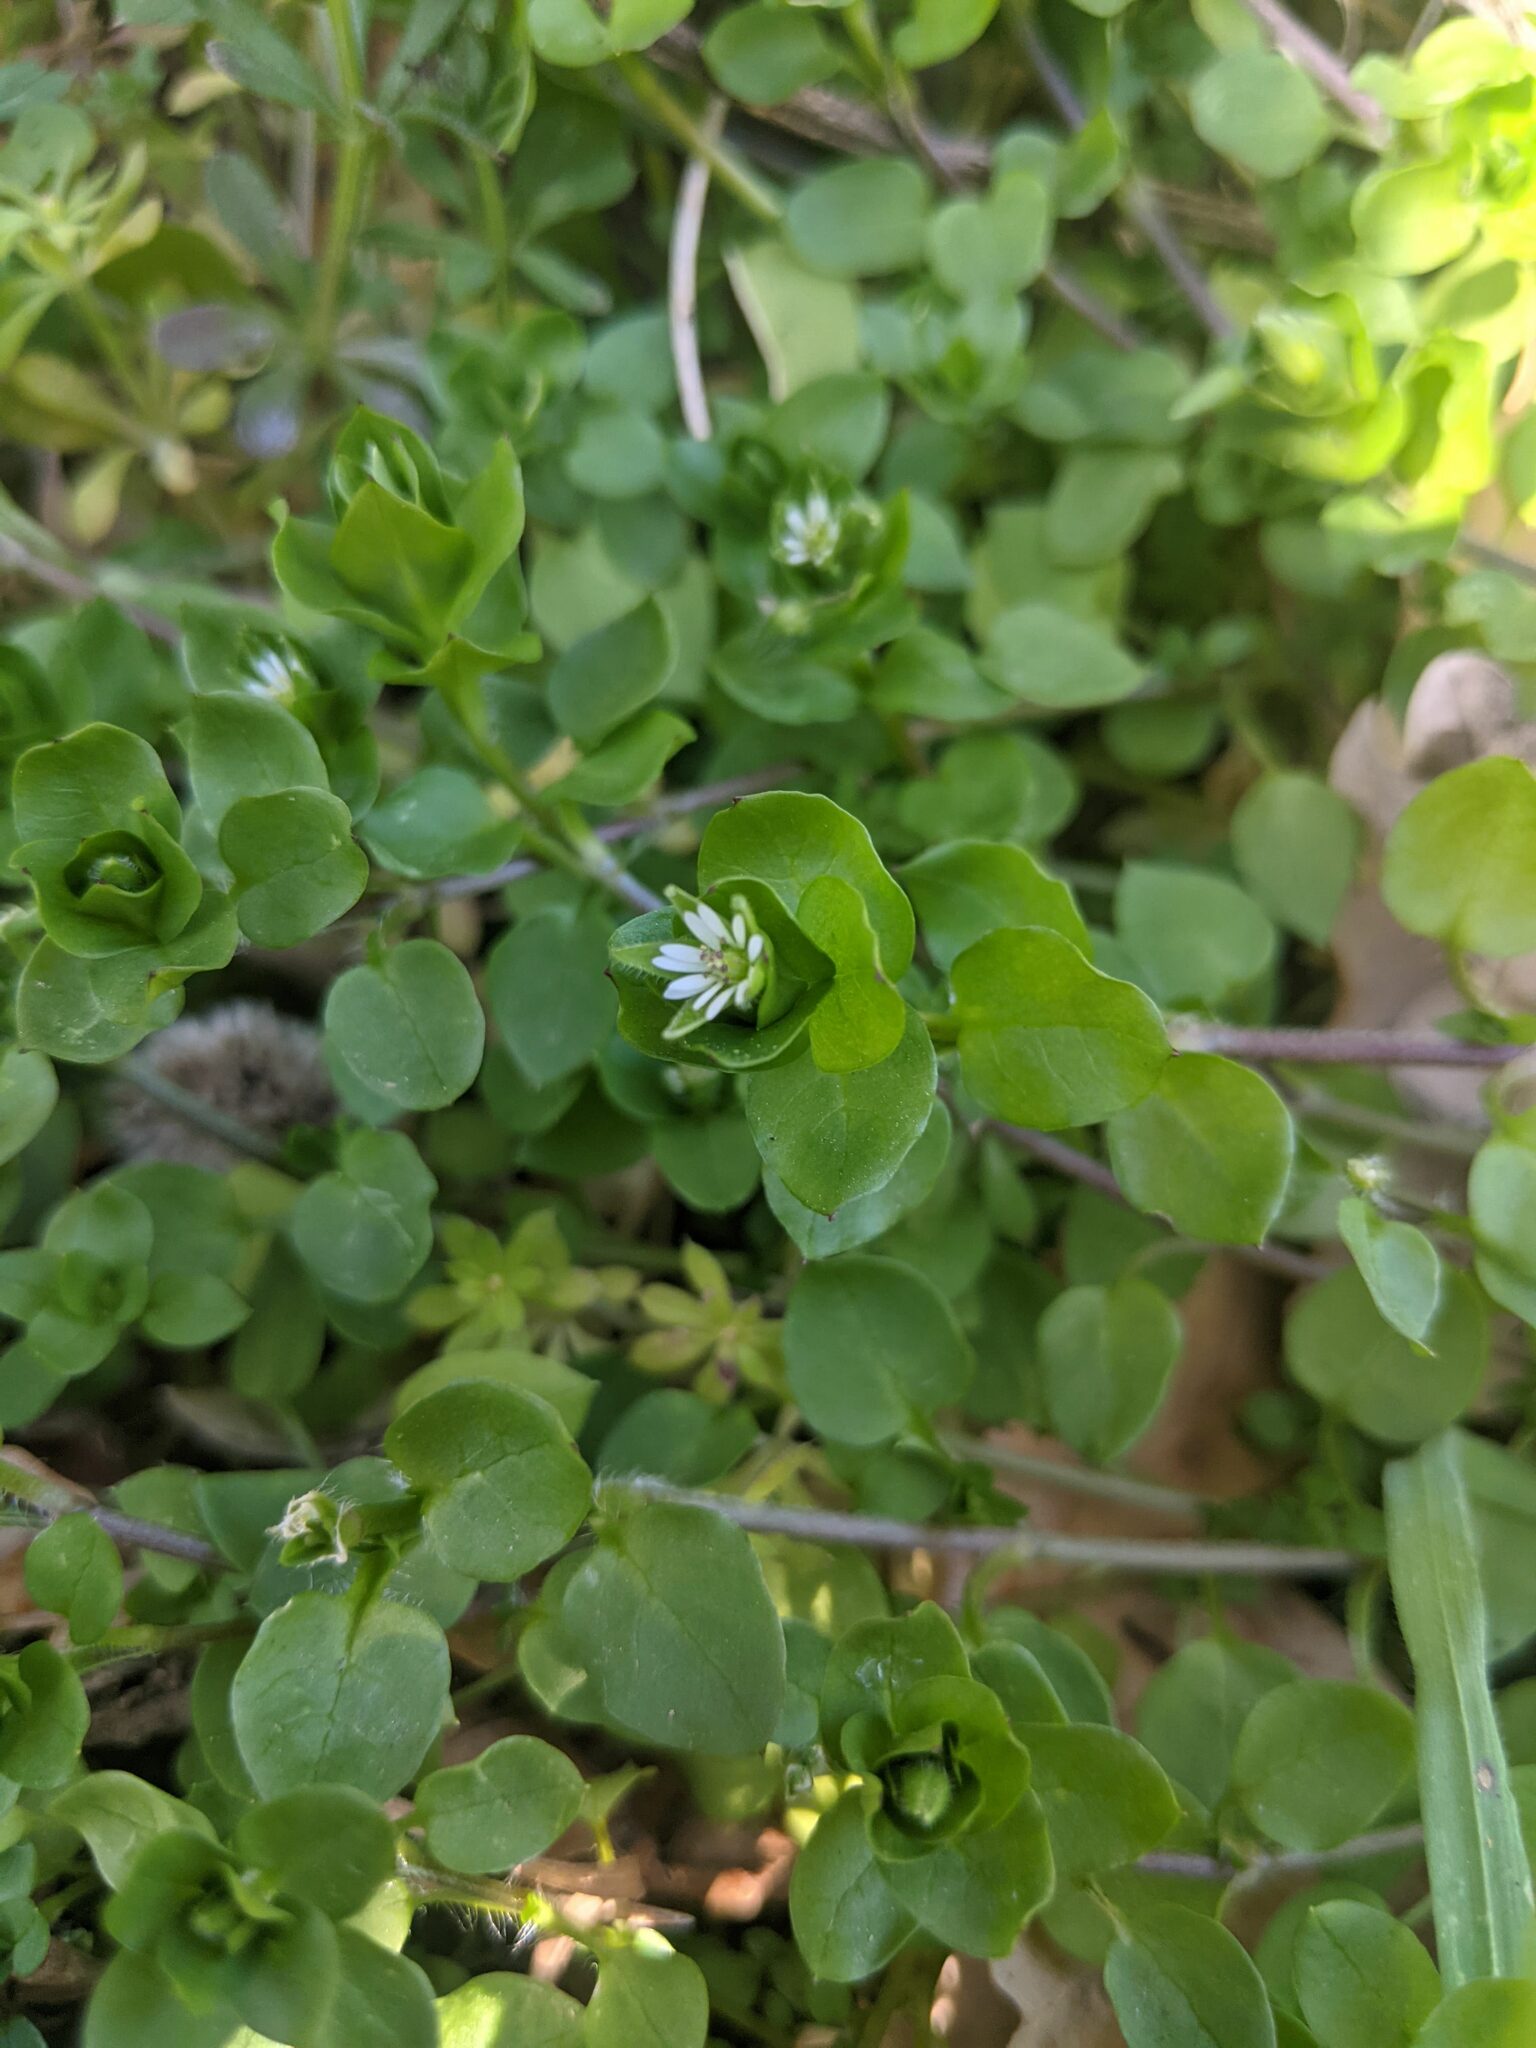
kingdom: Plantae
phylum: Tracheophyta
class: Magnoliopsida
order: Caryophyllales
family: Caryophyllaceae
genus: Stellaria
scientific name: Stellaria media
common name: Common chickweed
